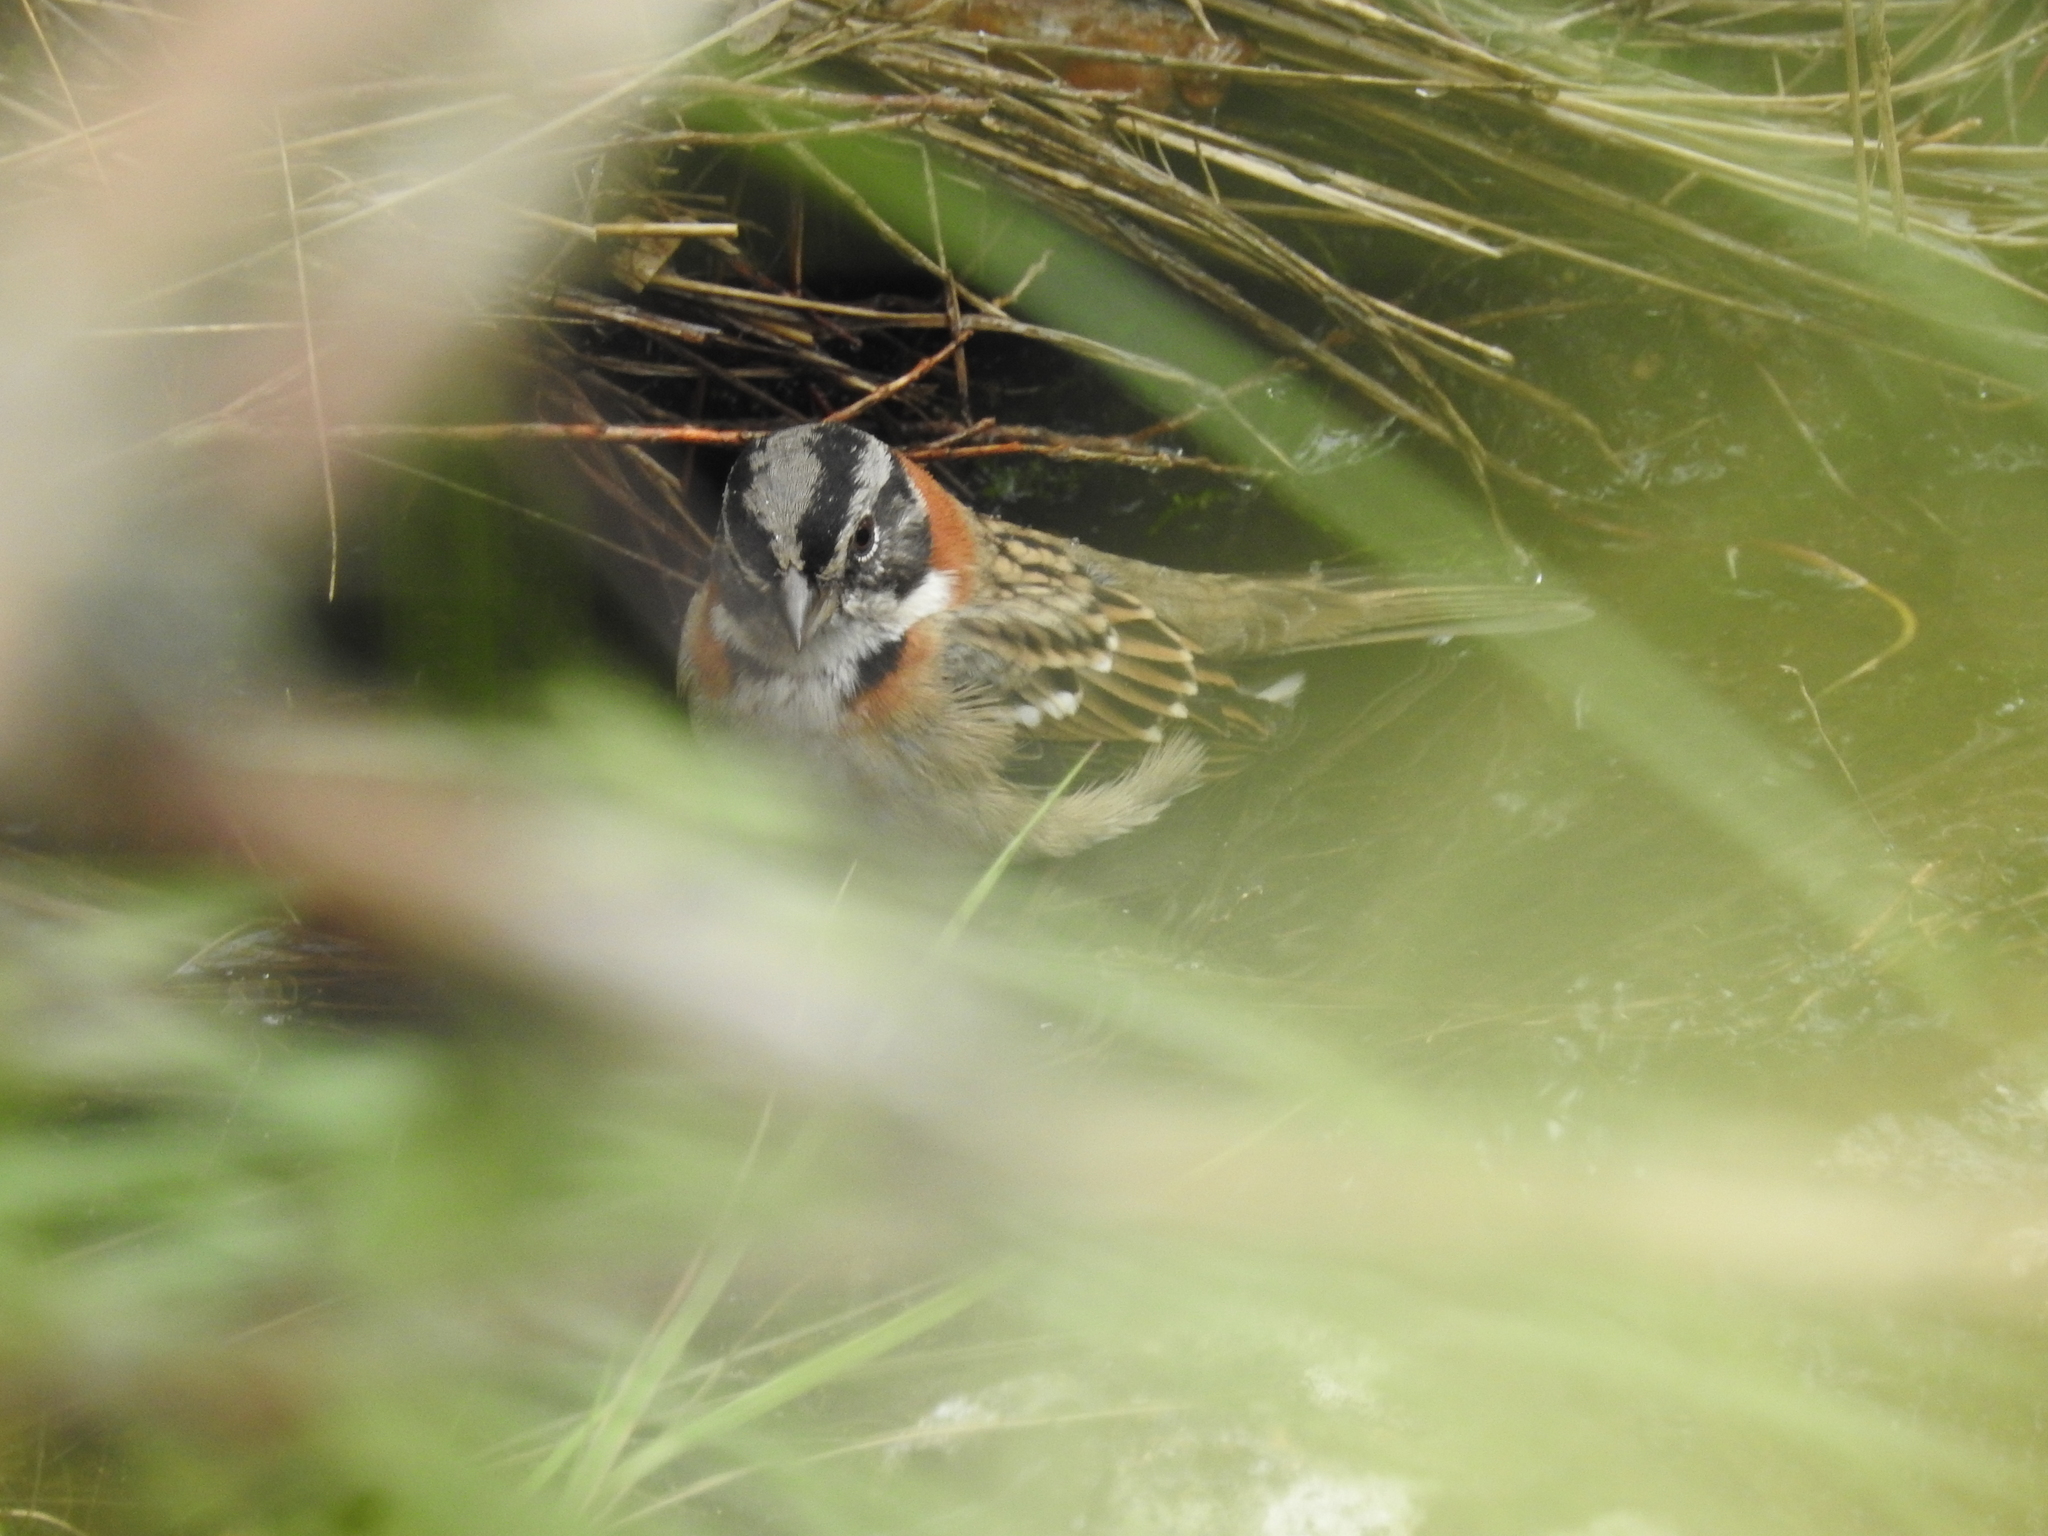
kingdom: Animalia
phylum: Chordata
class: Aves
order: Passeriformes
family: Passerellidae
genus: Zonotrichia
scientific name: Zonotrichia capensis
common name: Rufous-collared sparrow
